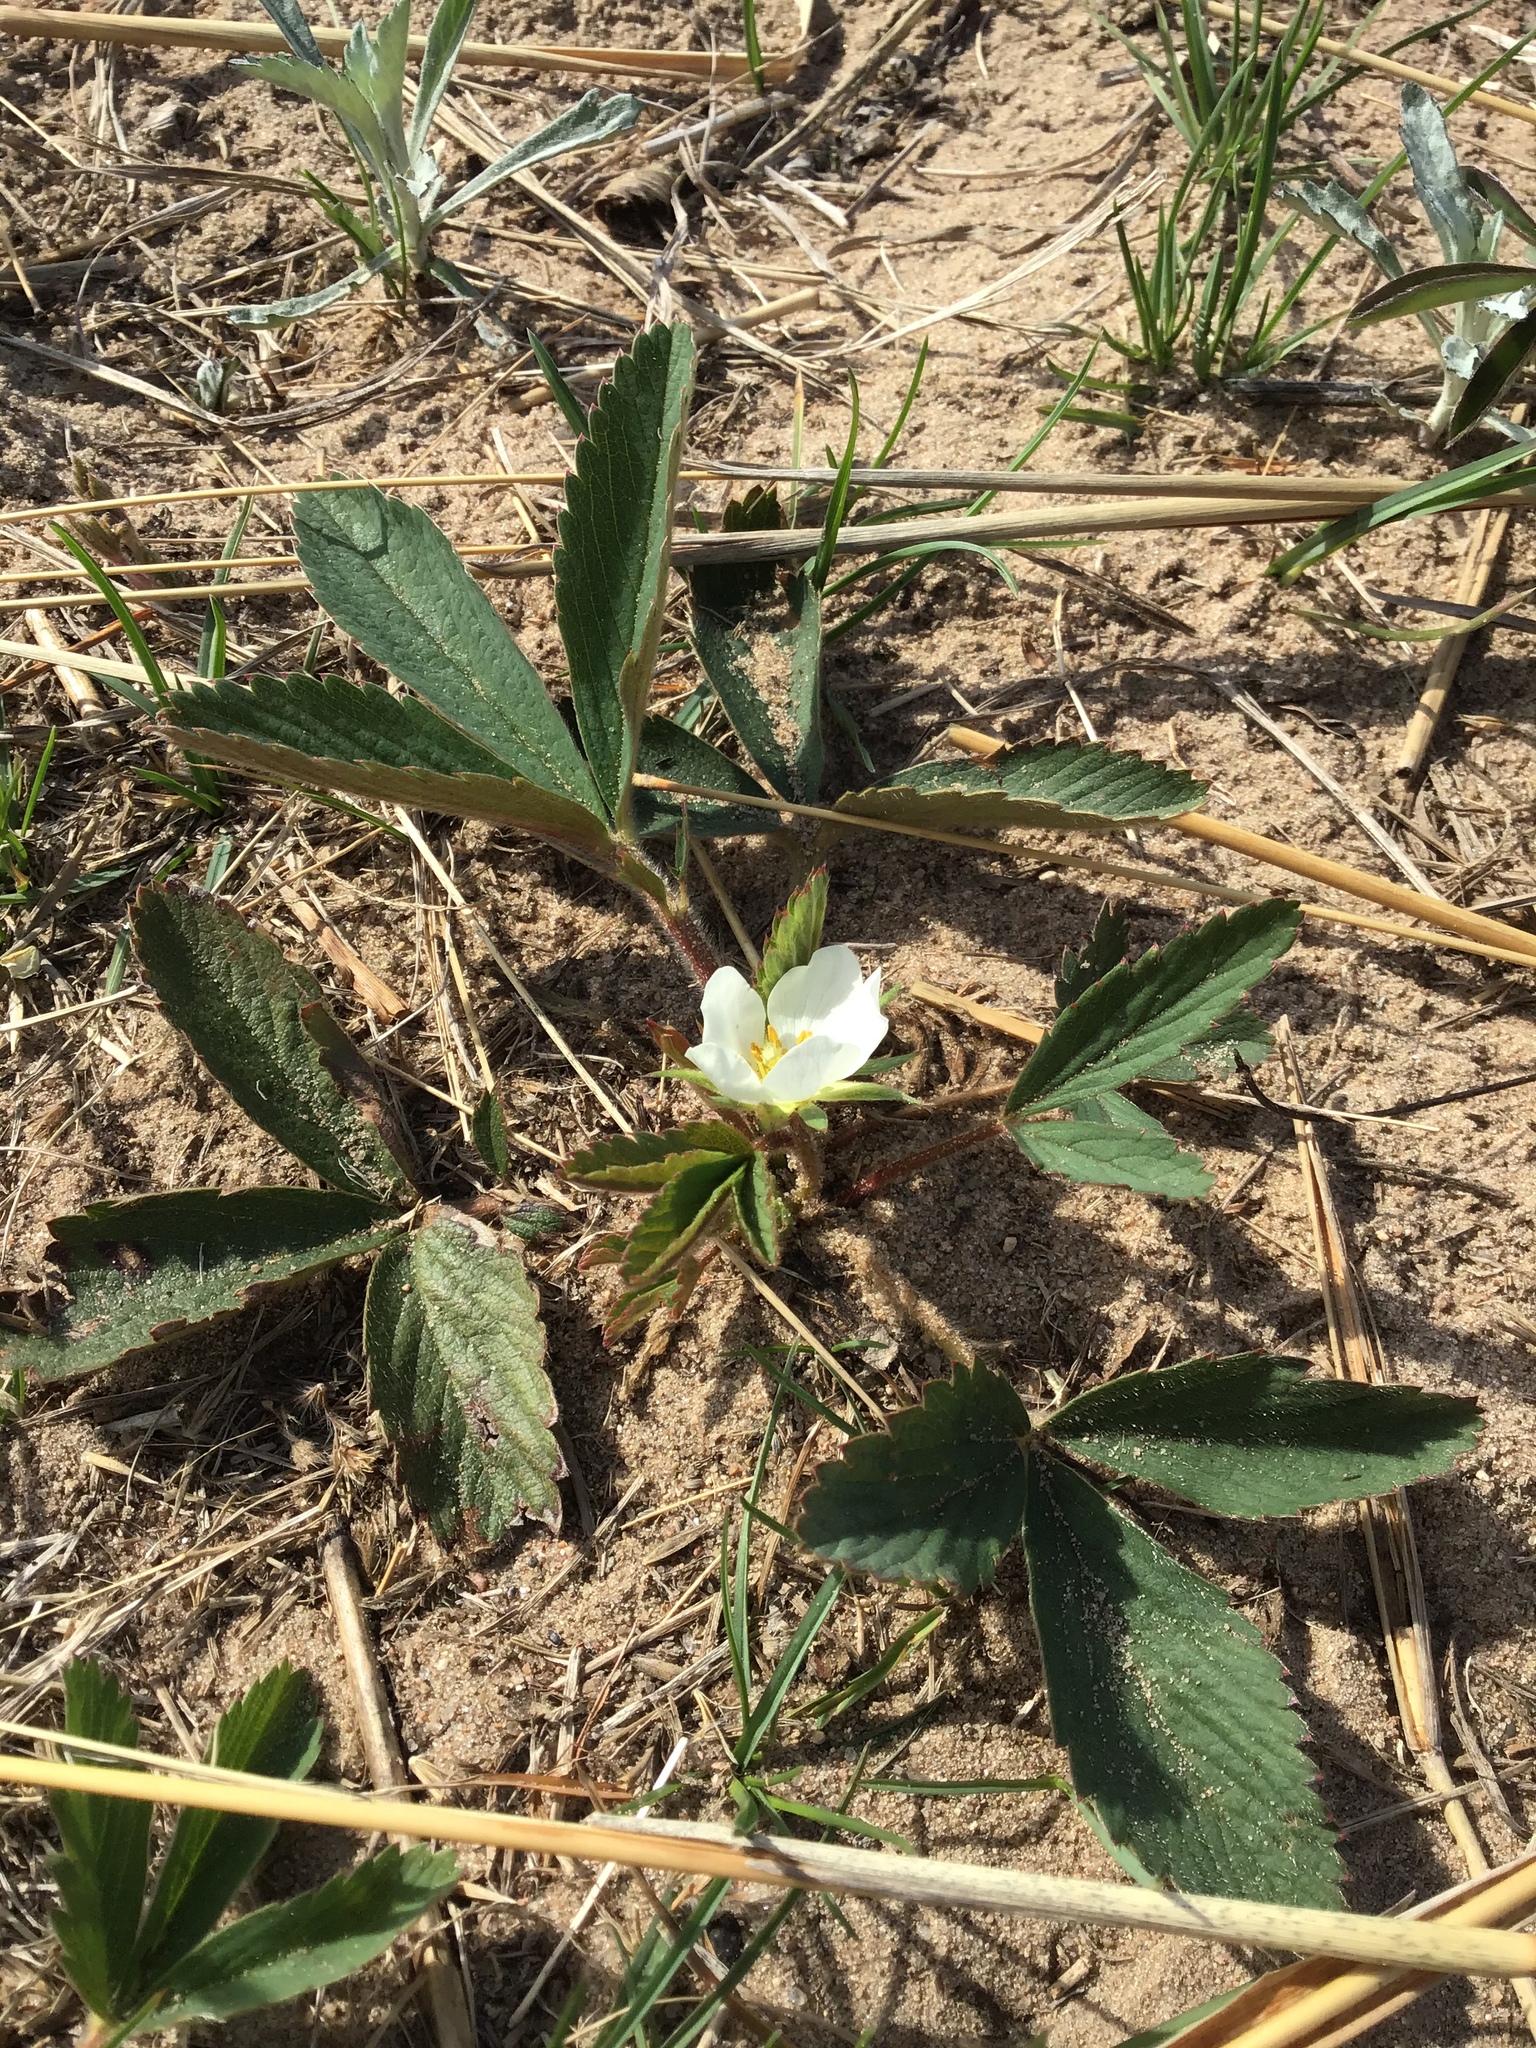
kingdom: Plantae
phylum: Tracheophyta
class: Magnoliopsida
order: Rosales
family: Rosaceae
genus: Fragaria
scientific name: Fragaria virginiana
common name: Thickleaved wild strawberry
